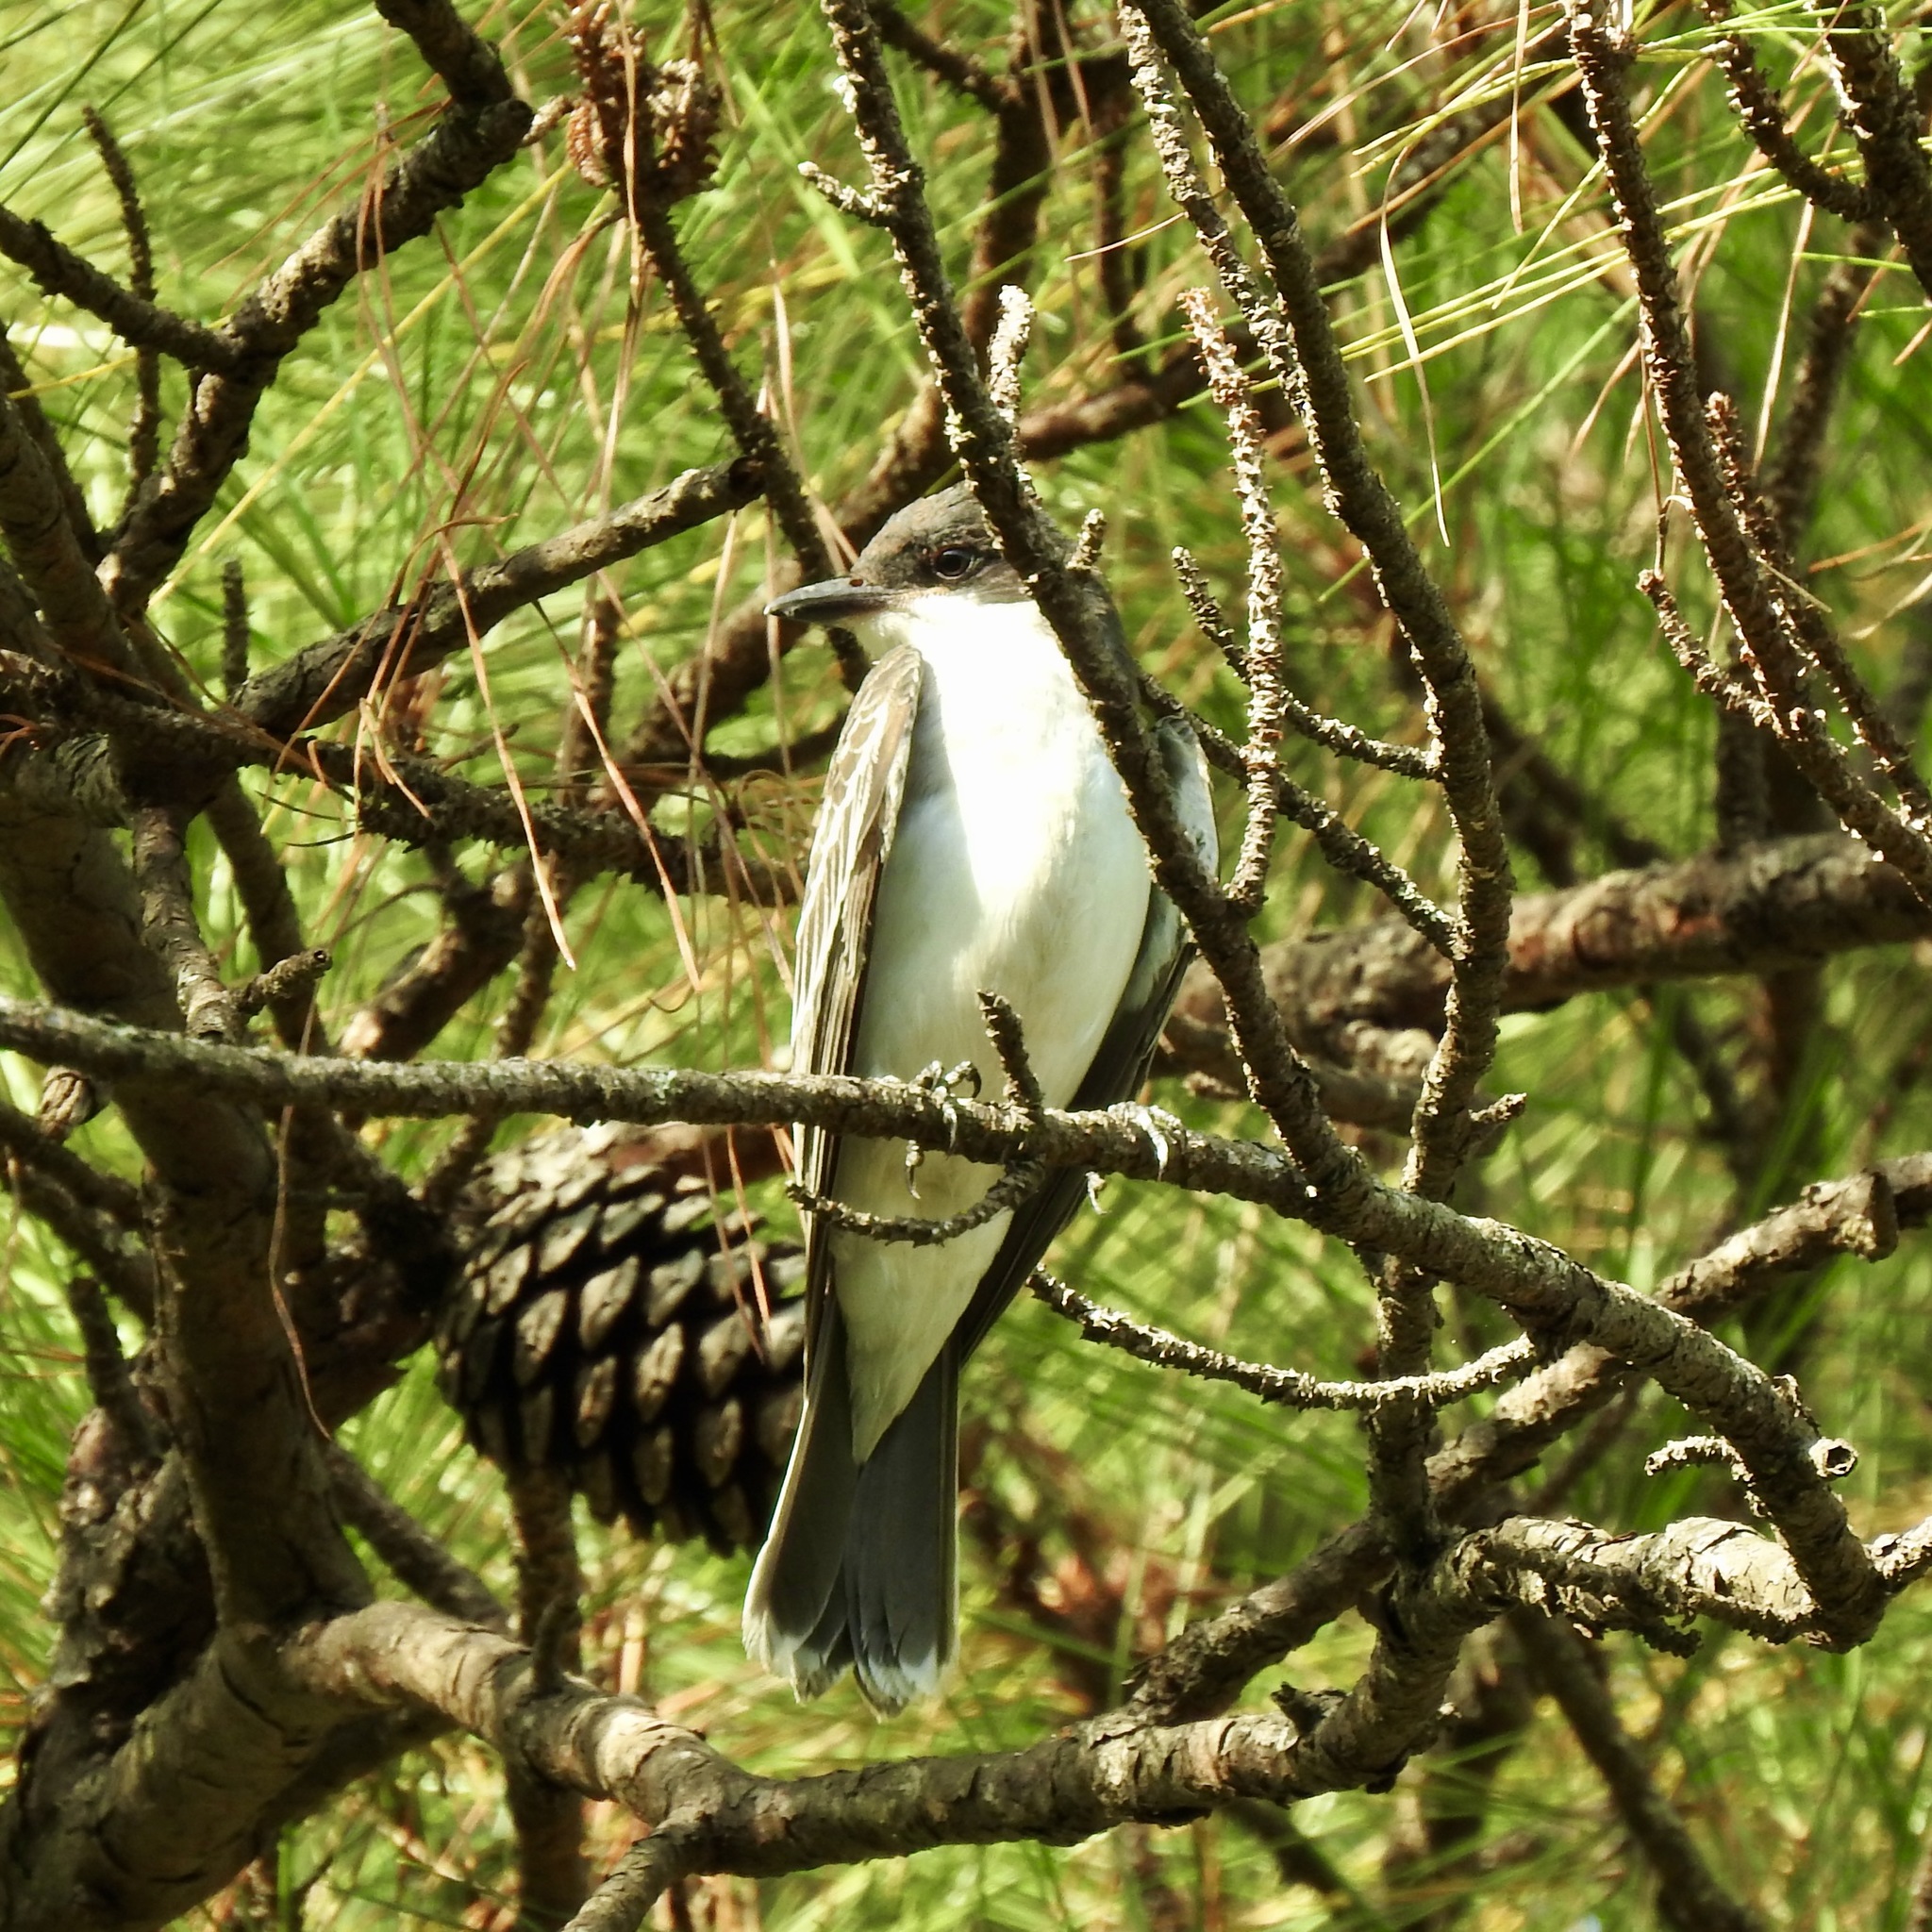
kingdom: Animalia
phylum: Chordata
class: Aves
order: Passeriformes
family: Tyrannidae
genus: Tyrannus
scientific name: Tyrannus tyrannus
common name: Eastern kingbird
